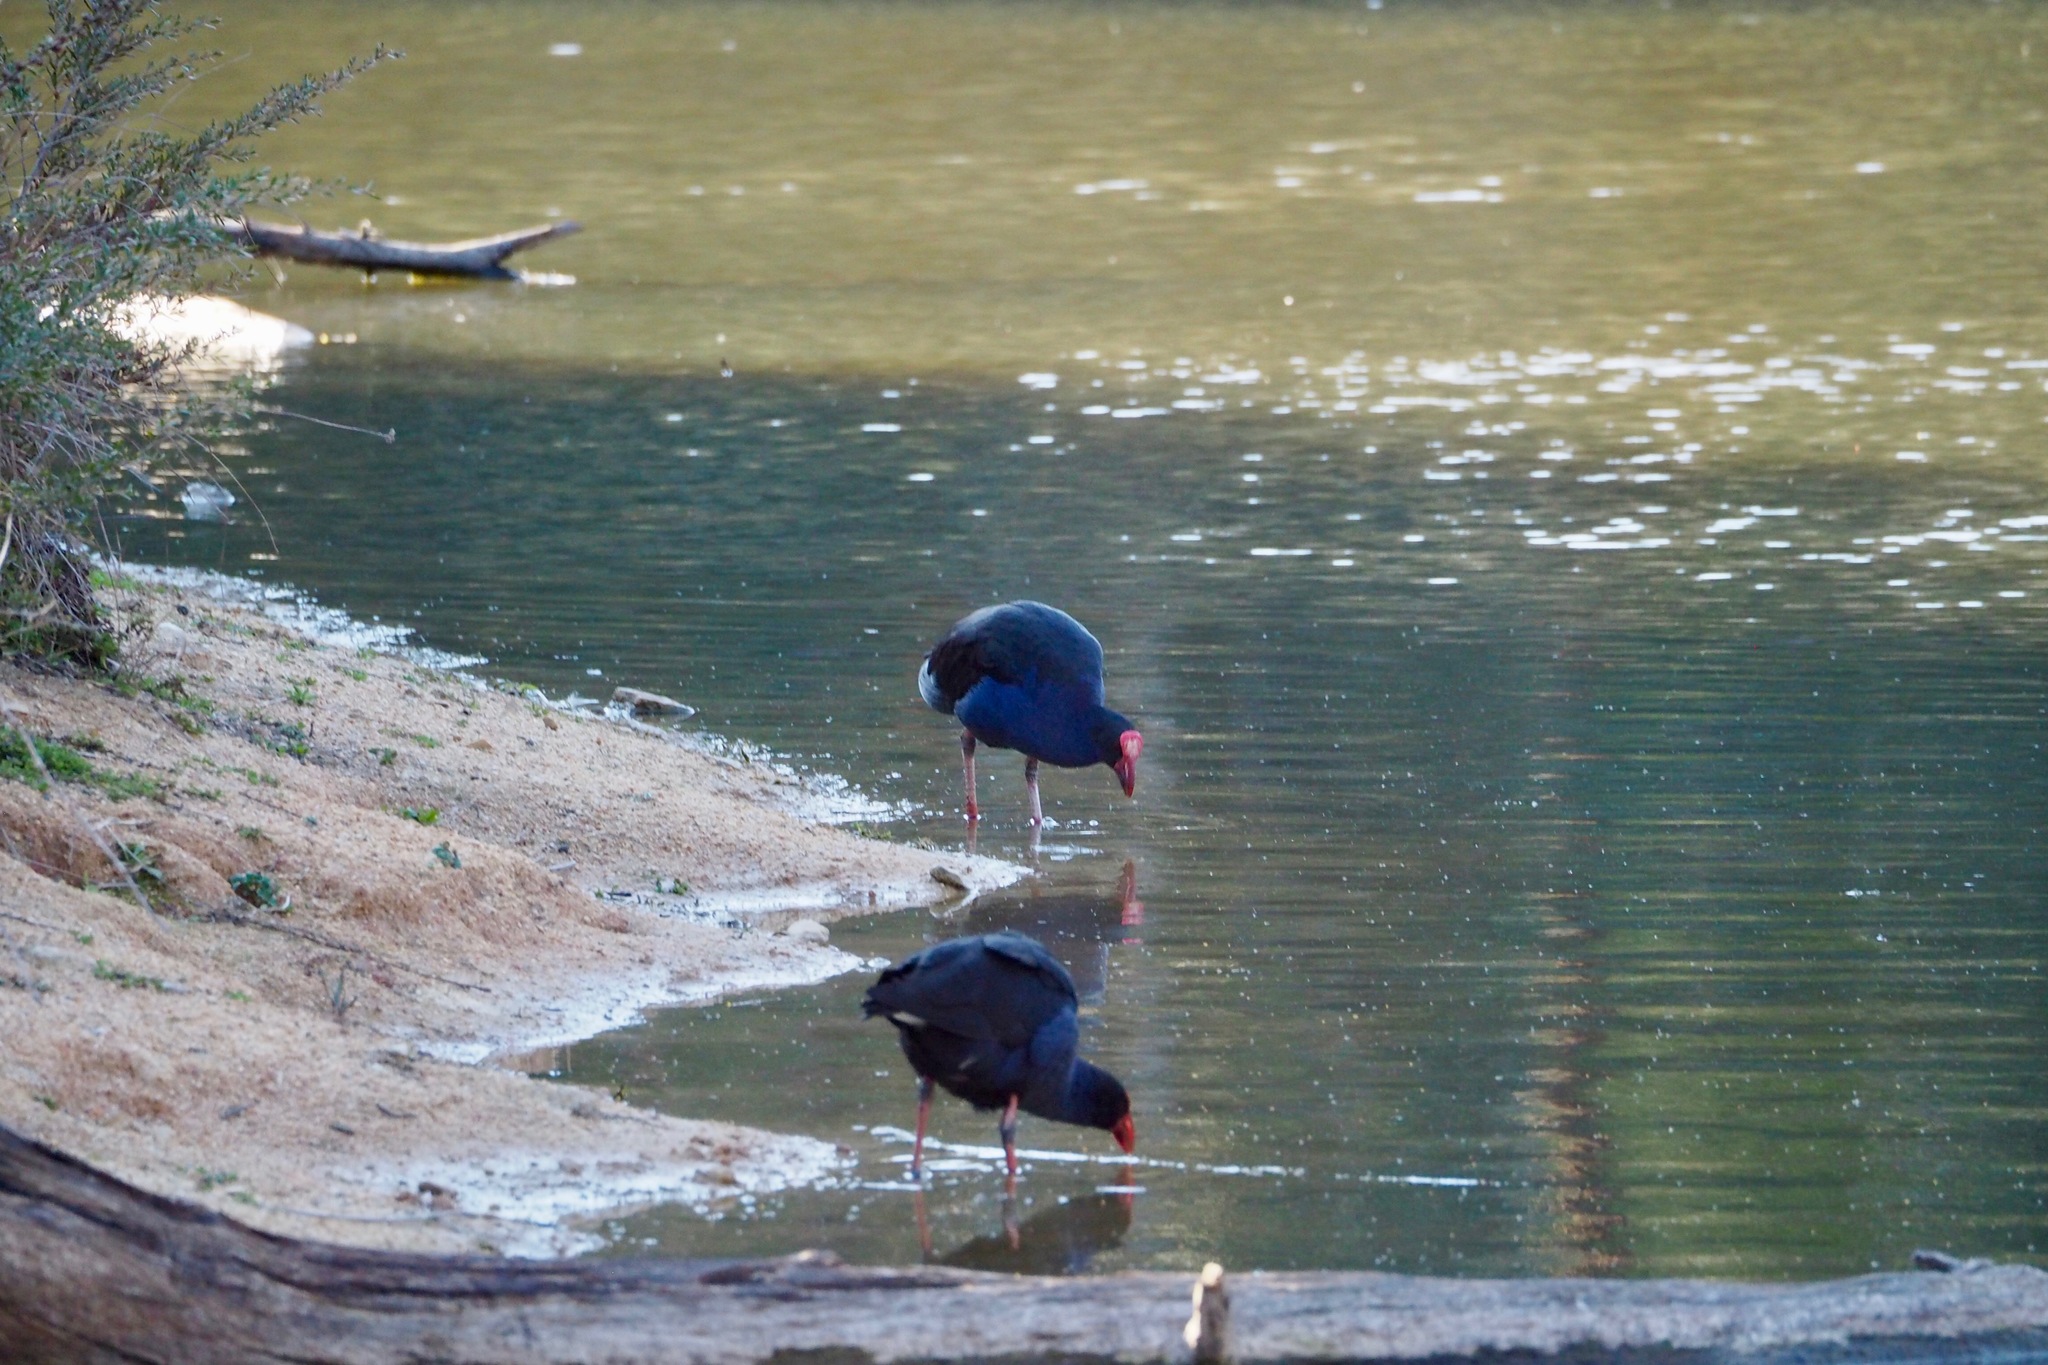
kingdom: Animalia
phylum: Chordata
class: Aves
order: Gruiformes
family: Rallidae
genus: Porphyrio
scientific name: Porphyrio melanotus
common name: Australasian swamphen
